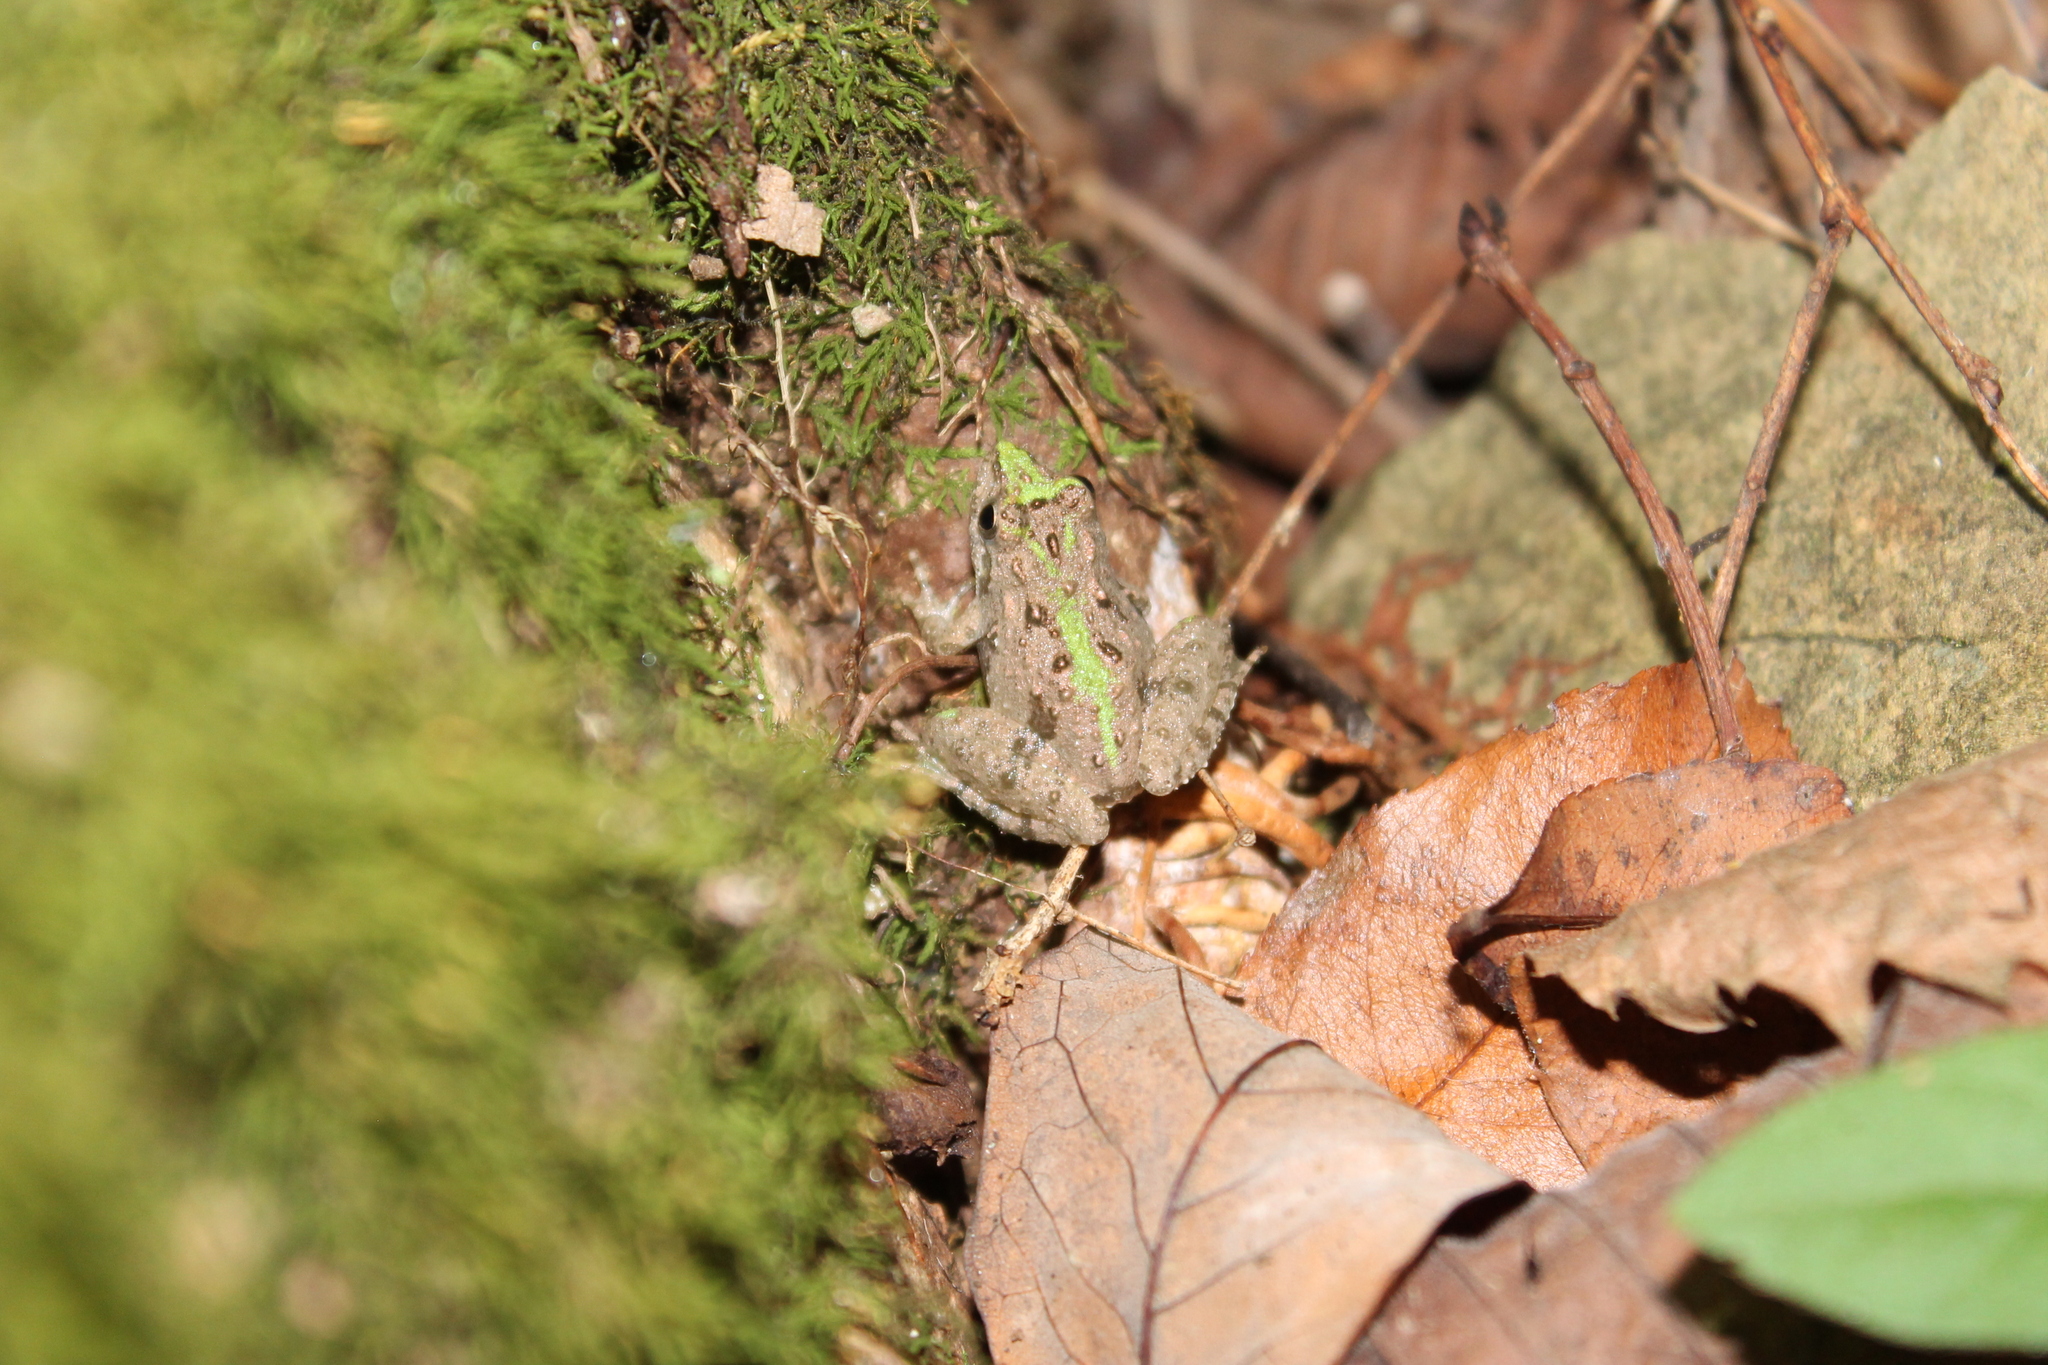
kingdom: Animalia
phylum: Chordata
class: Amphibia
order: Anura
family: Hylidae
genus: Acris
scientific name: Acris crepitans
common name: Northern cricket frog
